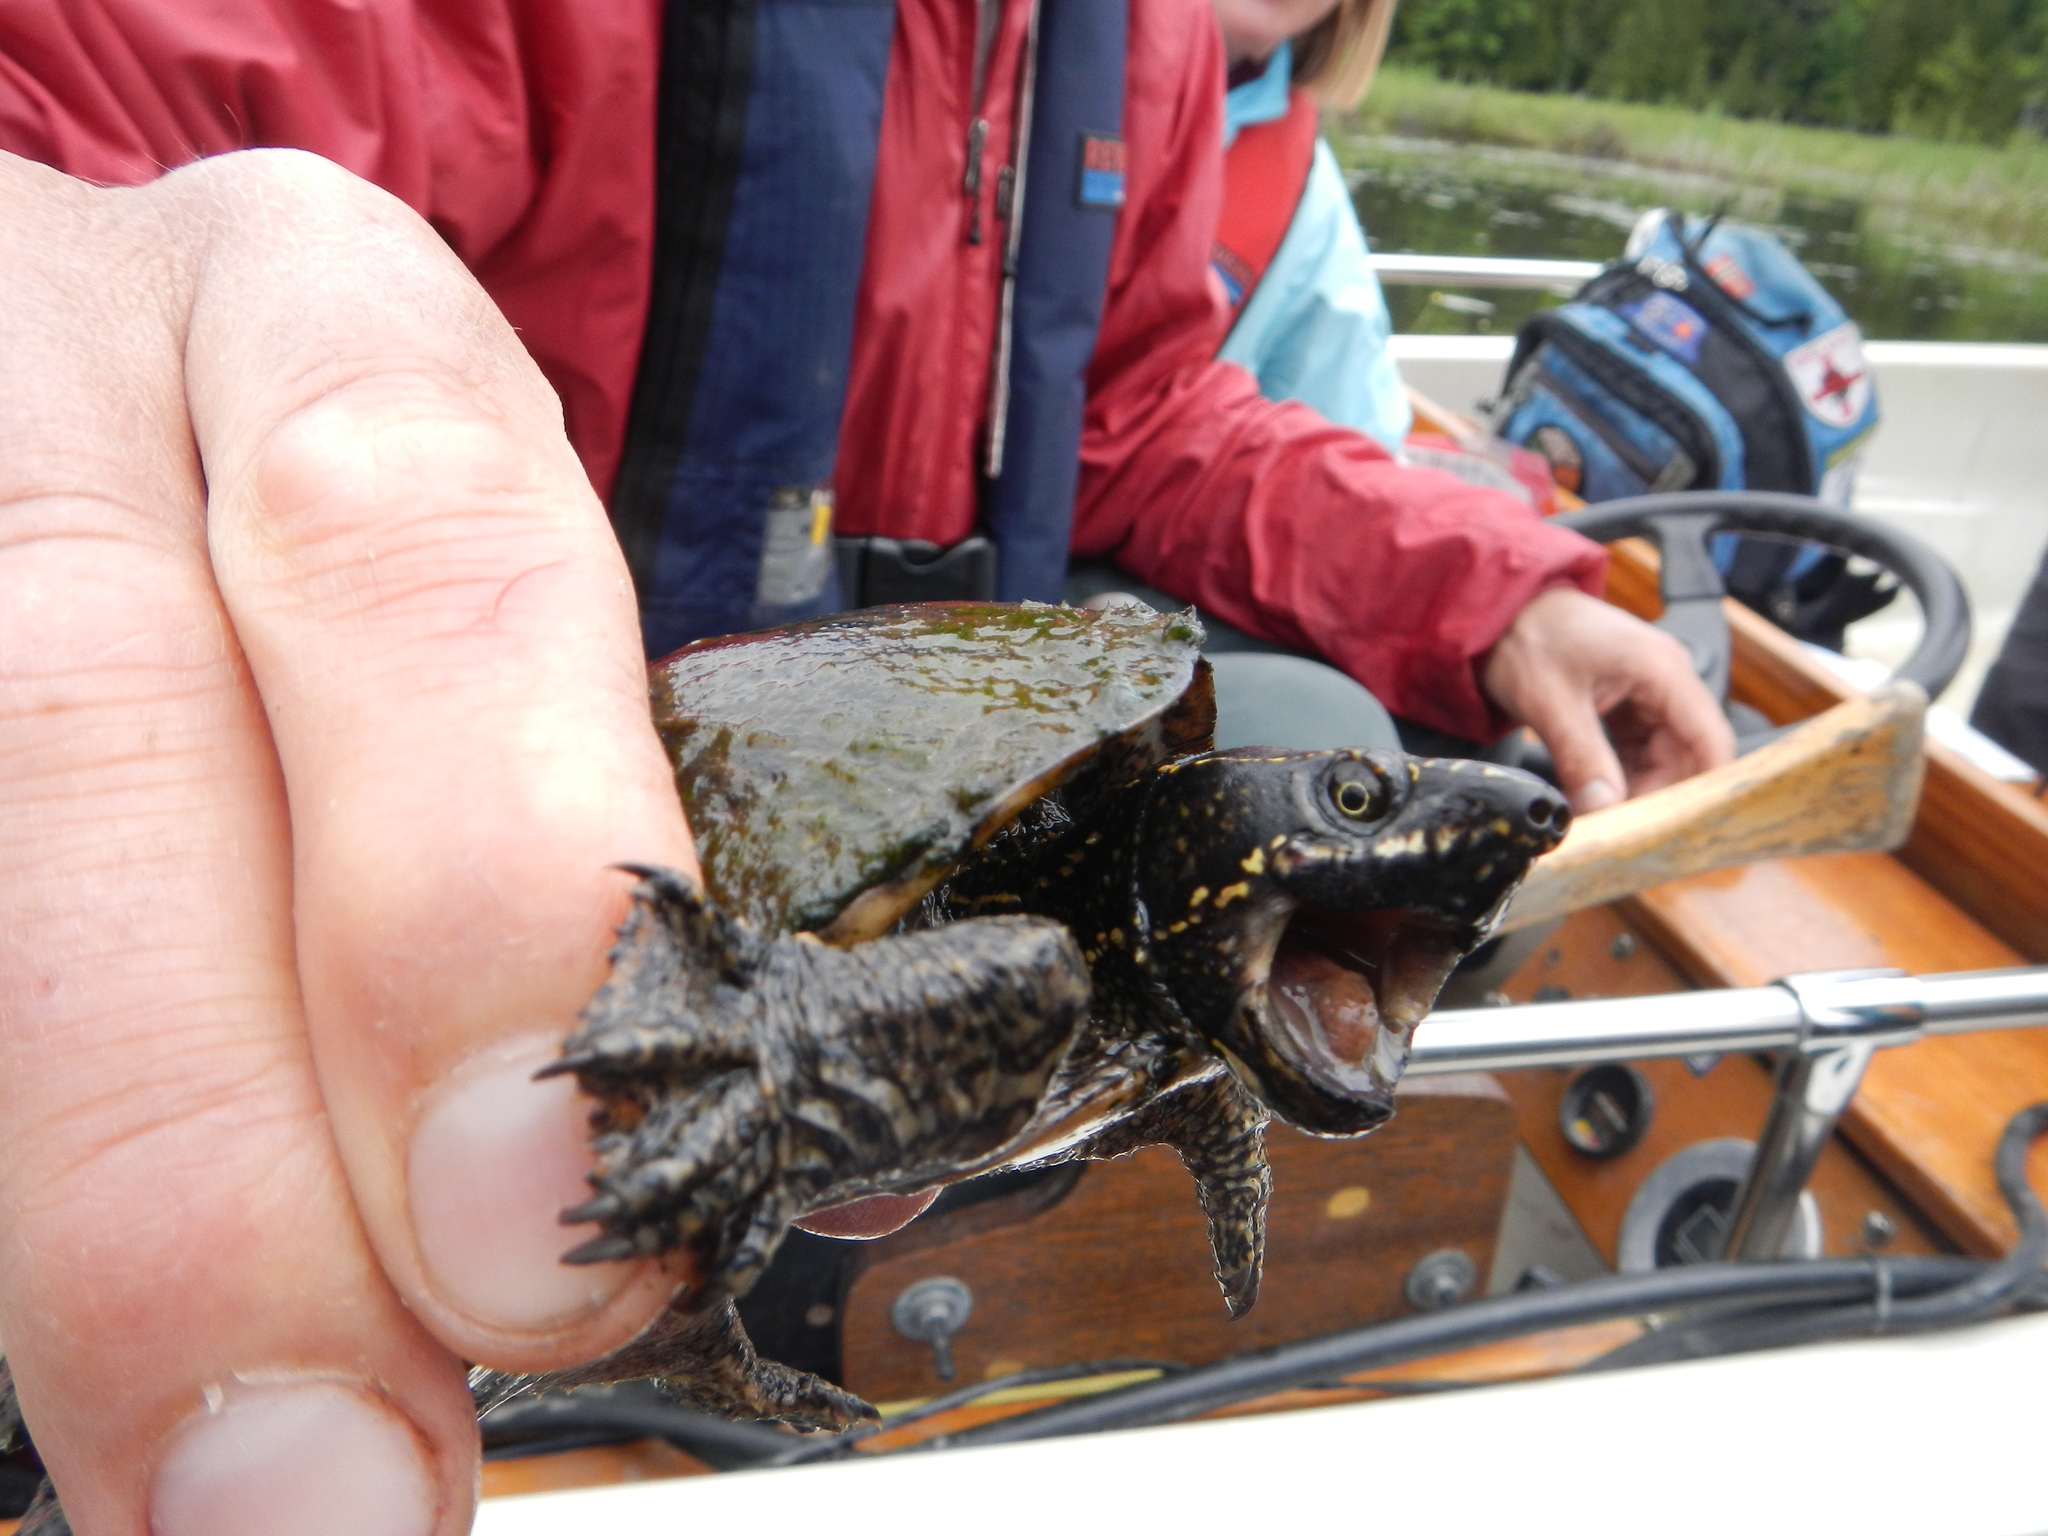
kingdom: Animalia
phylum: Chordata
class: Testudines
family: Kinosternidae
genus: Sternotherus
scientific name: Sternotherus odoratus
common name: Common musk turtle
